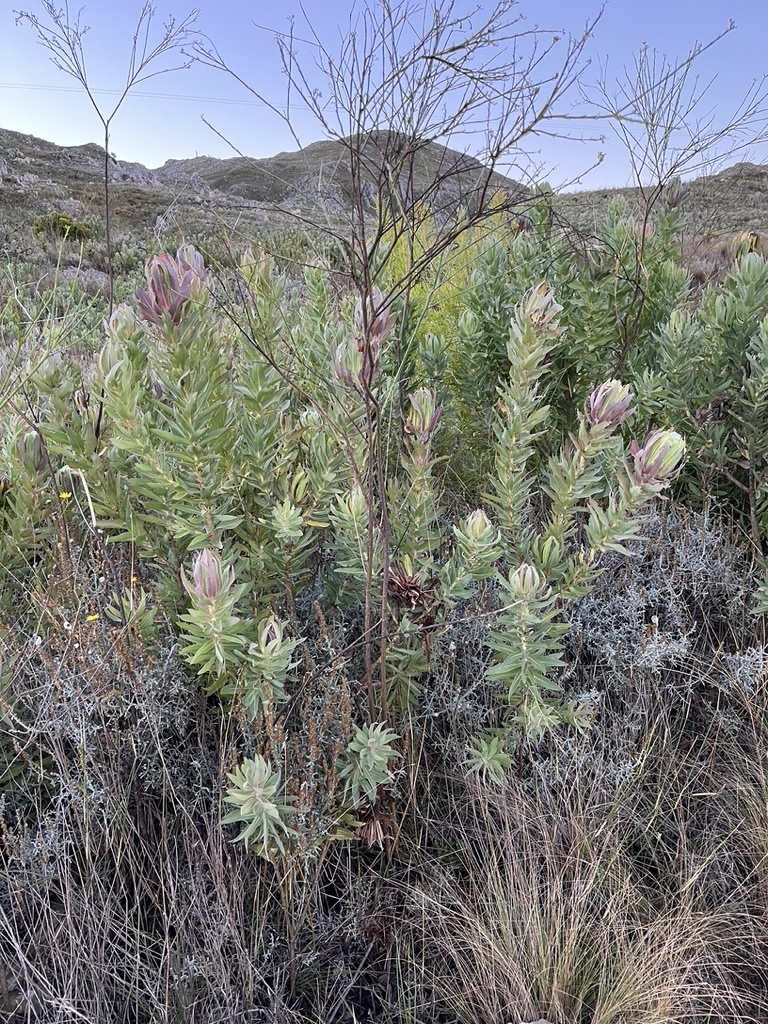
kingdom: Plantae
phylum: Tracheophyta
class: Magnoliopsida
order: Proteales
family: Proteaceae
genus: Protea
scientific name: Protea coronata
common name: Green sugarbush
